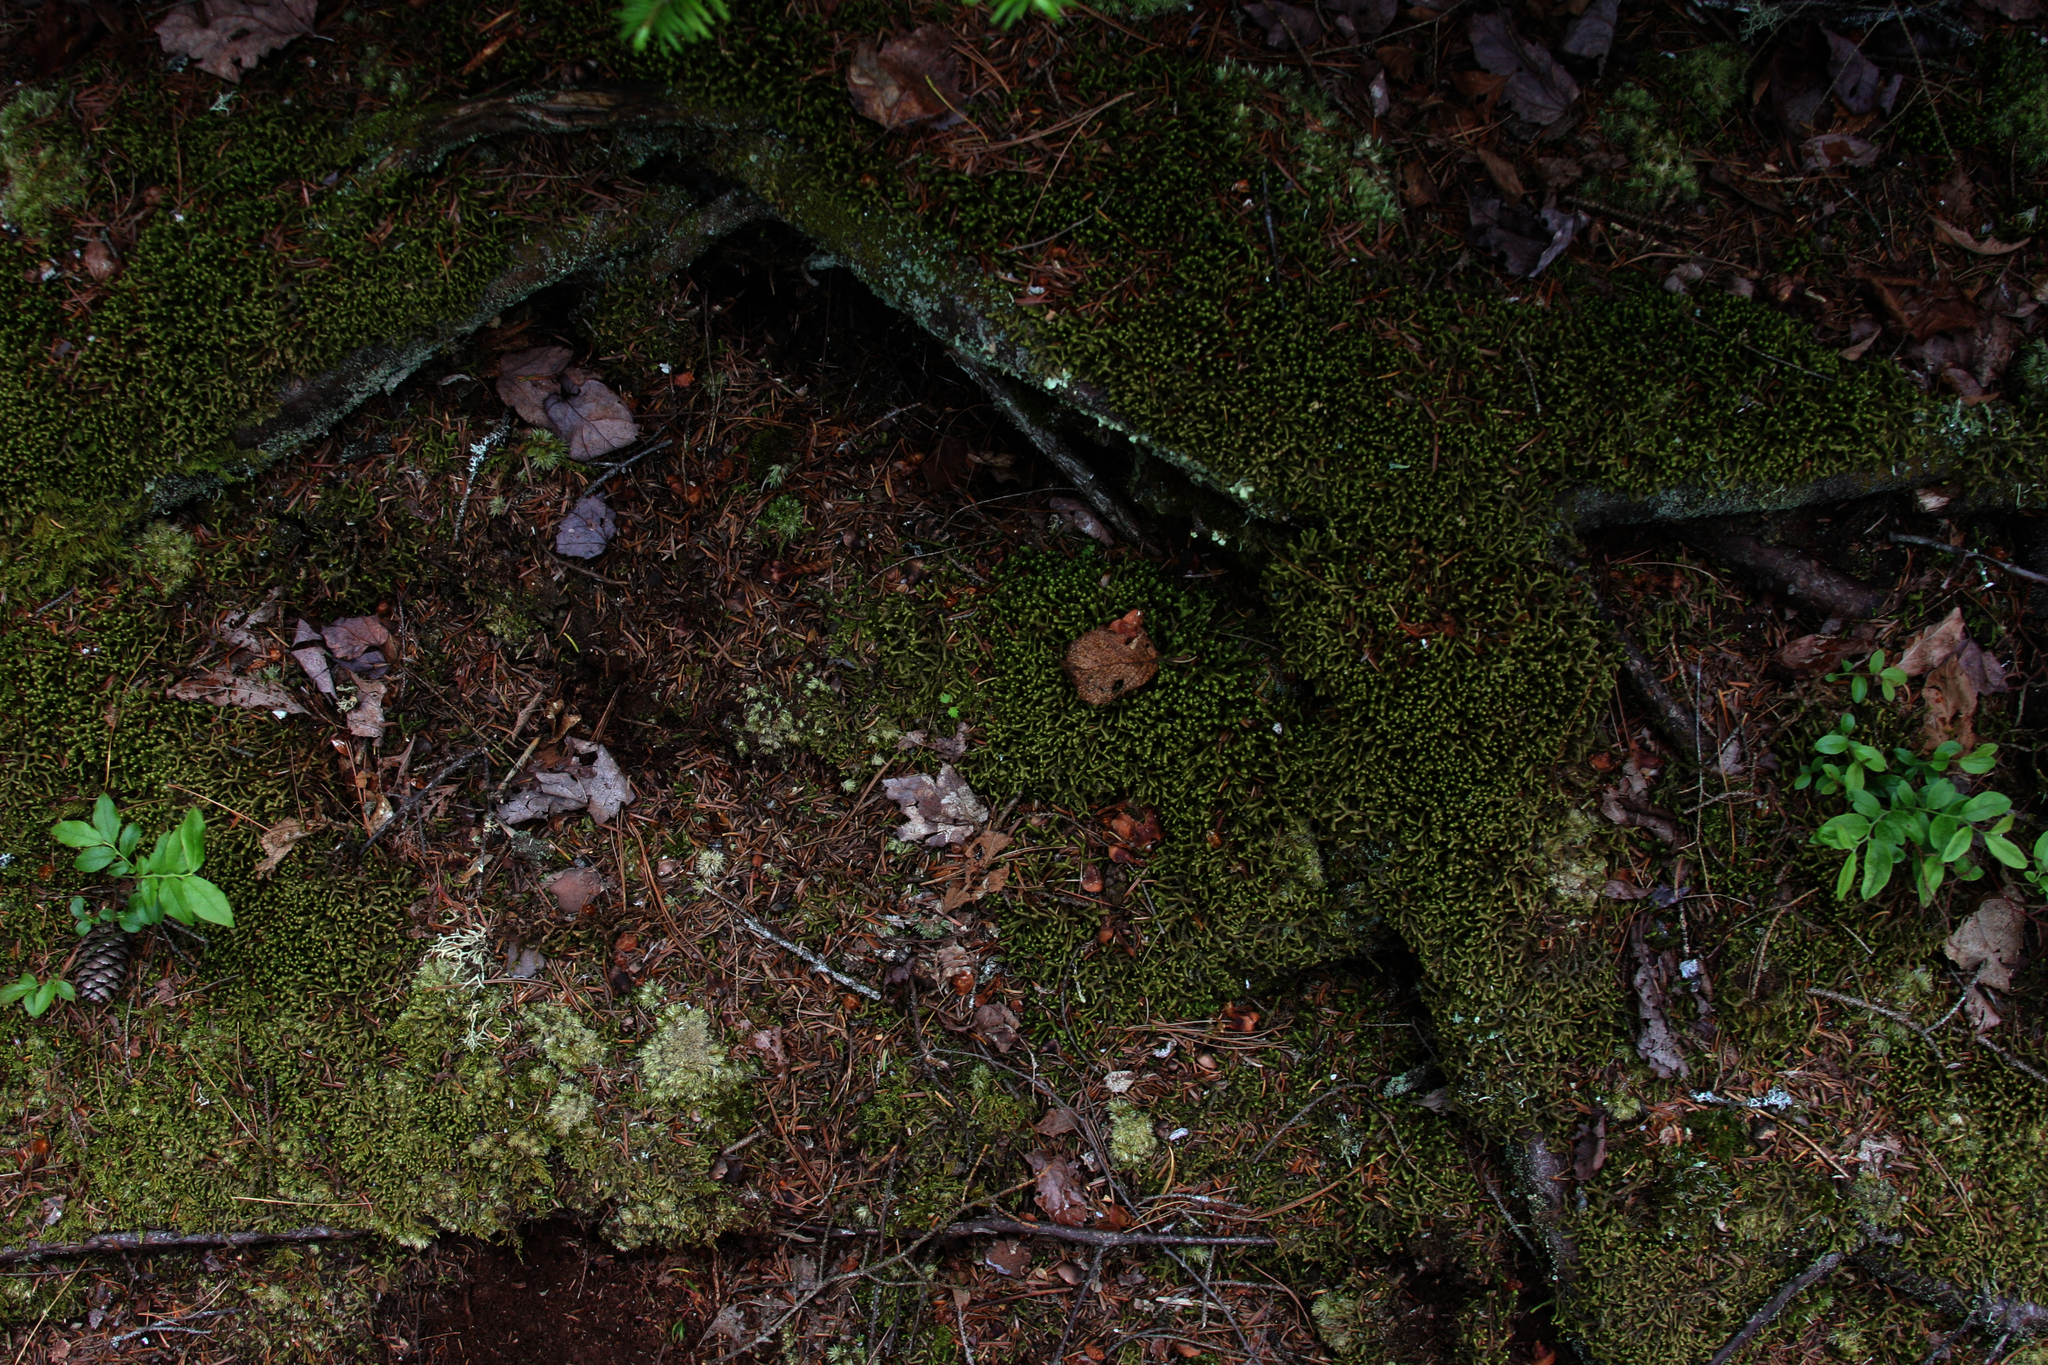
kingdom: Plantae
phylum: Marchantiophyta
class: Jungermanniopsida
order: Jungermanniales
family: Lepidoziaceae
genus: Bazzania
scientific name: Bazzania trilobata
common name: Three-lobed whipwort
